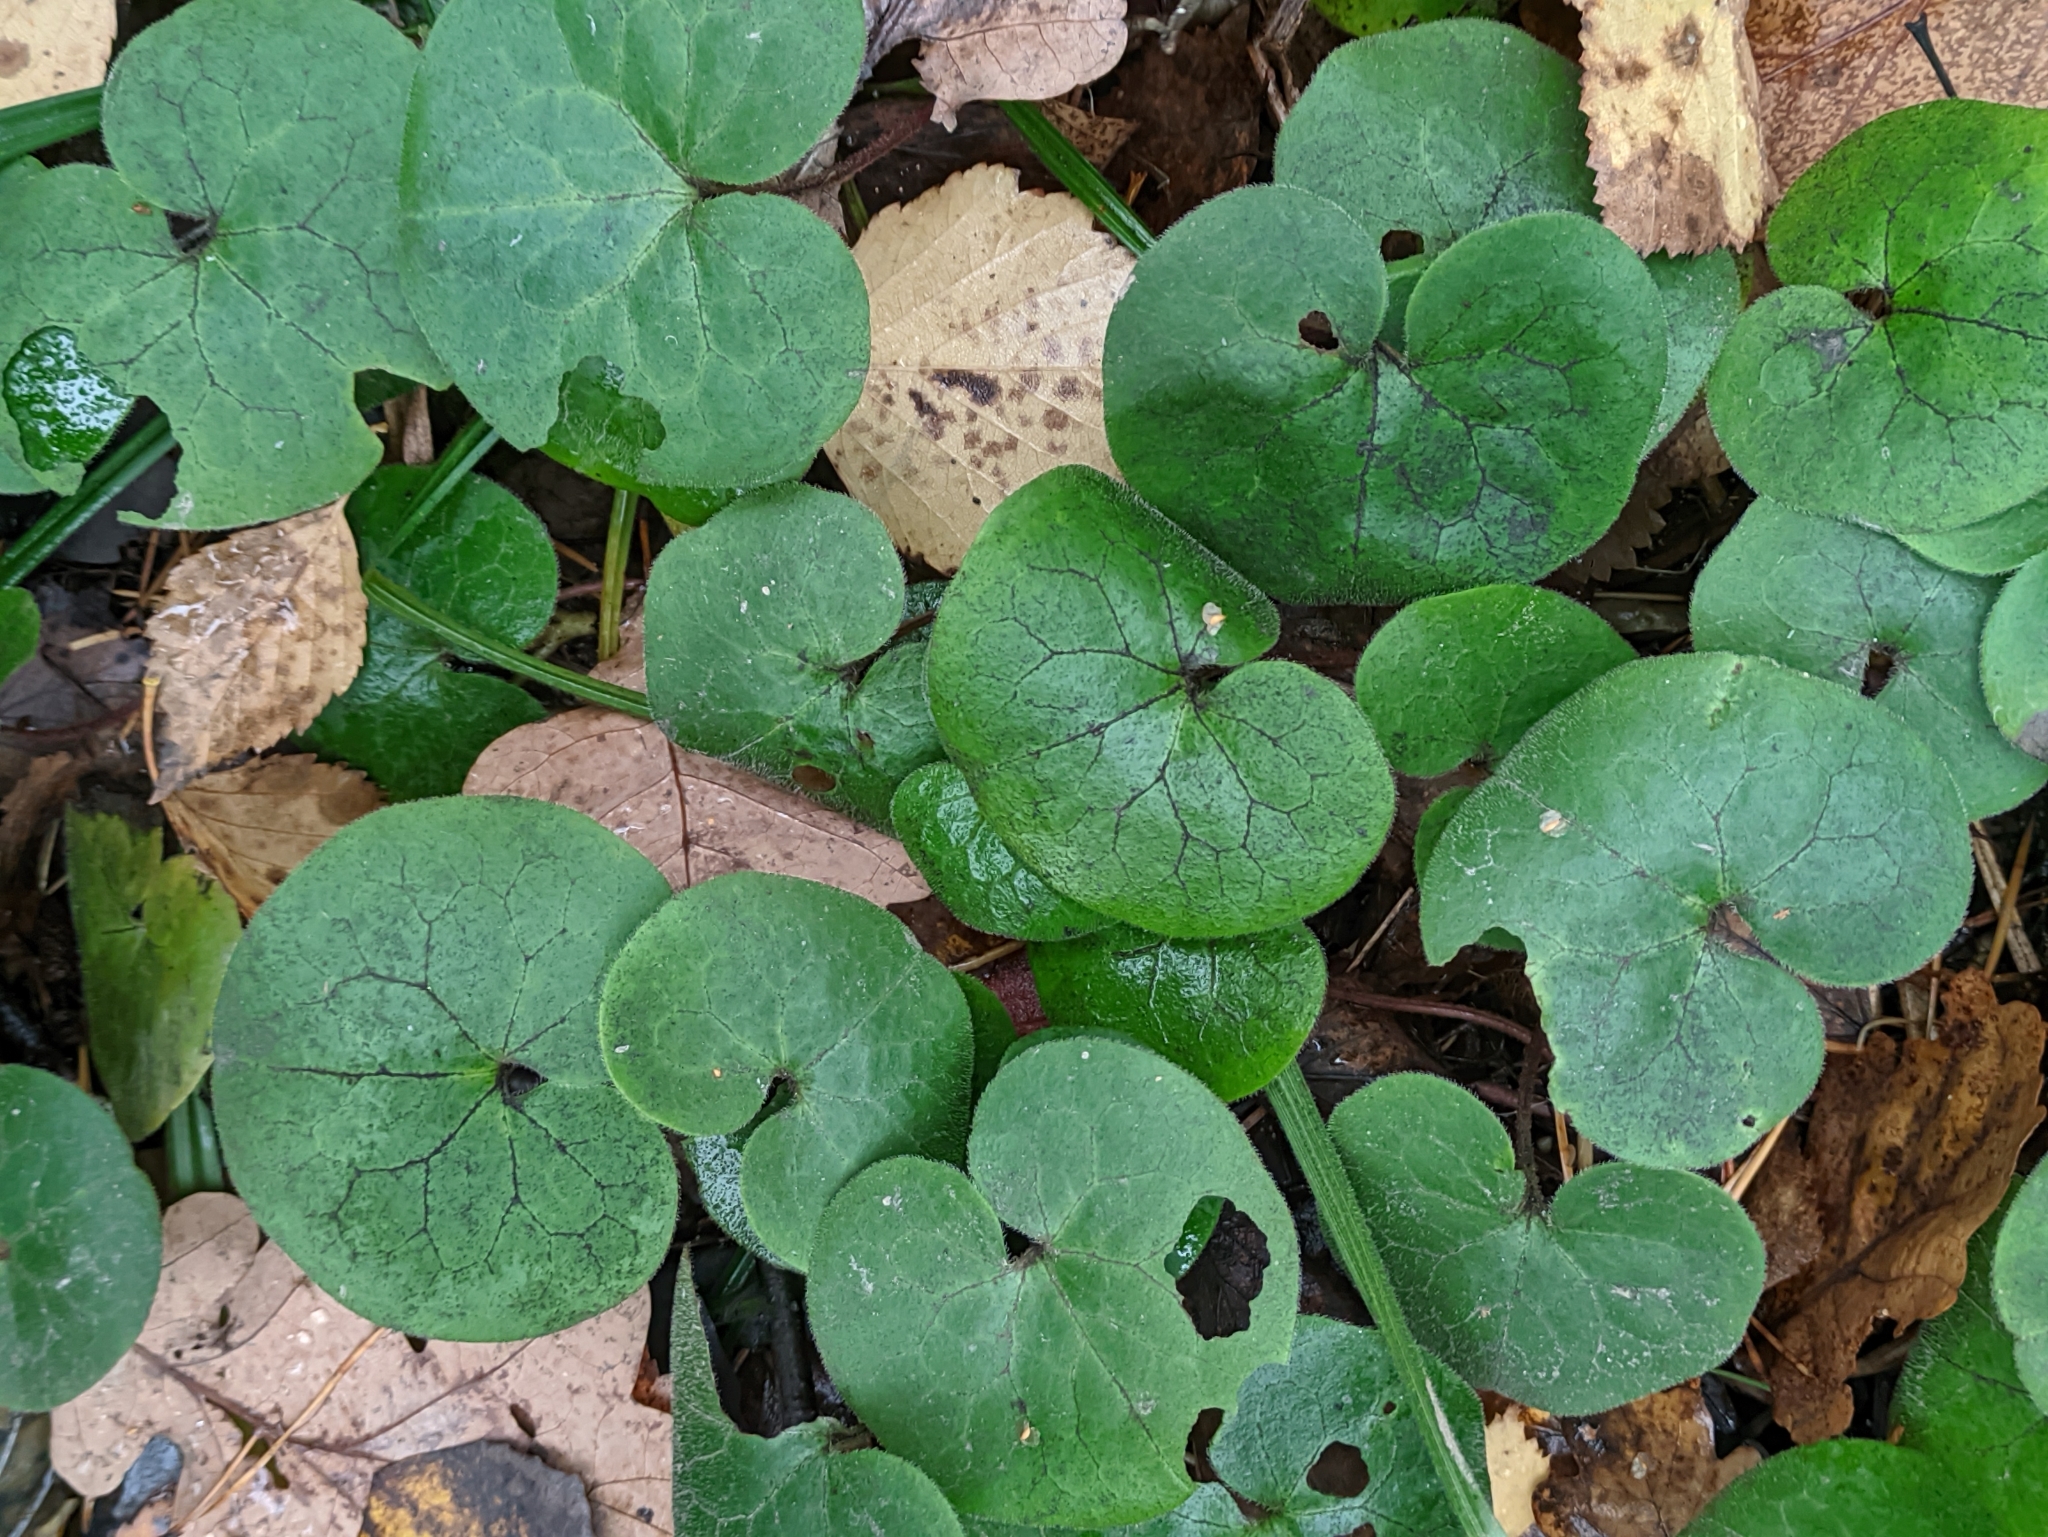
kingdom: Plantae
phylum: Tracheophyta
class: Magnoliopsida
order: Piperales
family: Aristolochiaceae
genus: Asarum
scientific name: Asarum europaeum
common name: Asarabacca
